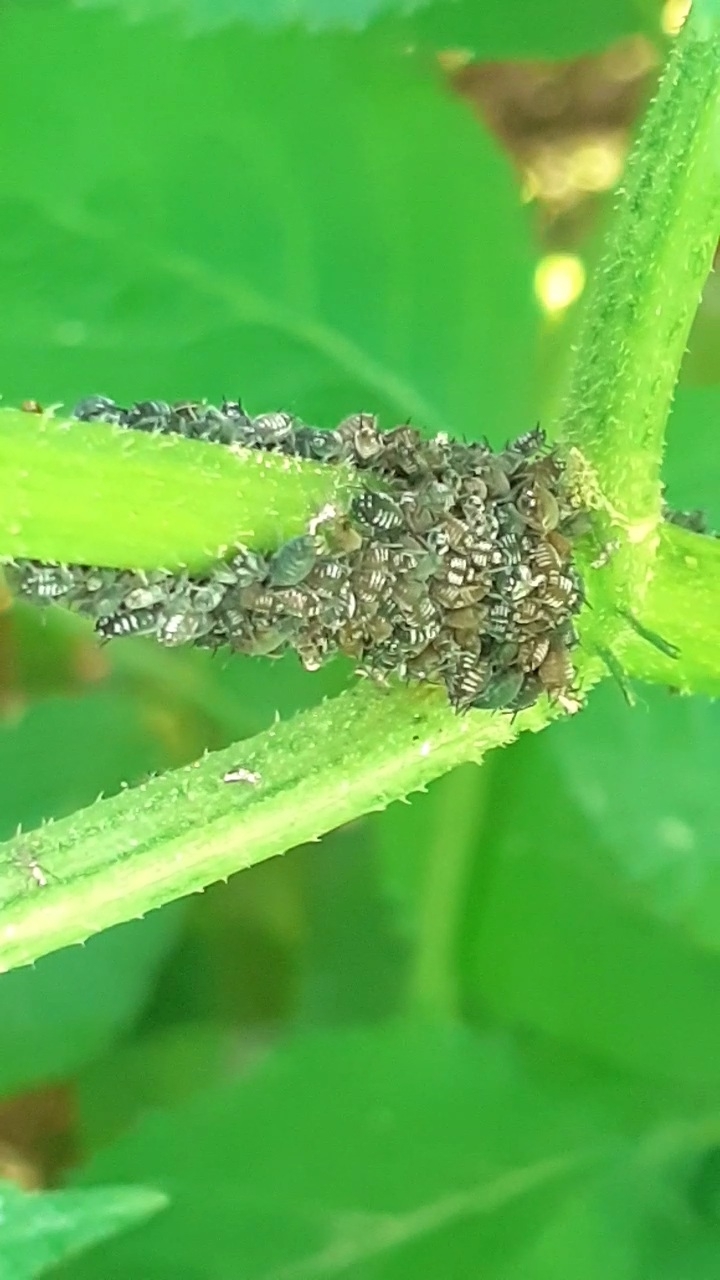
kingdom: Animalia
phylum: Arthropoda
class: Insecta
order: Hemiptera
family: Aphididae
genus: Aphis
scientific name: Aphis sambuci
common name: Elder aphid
